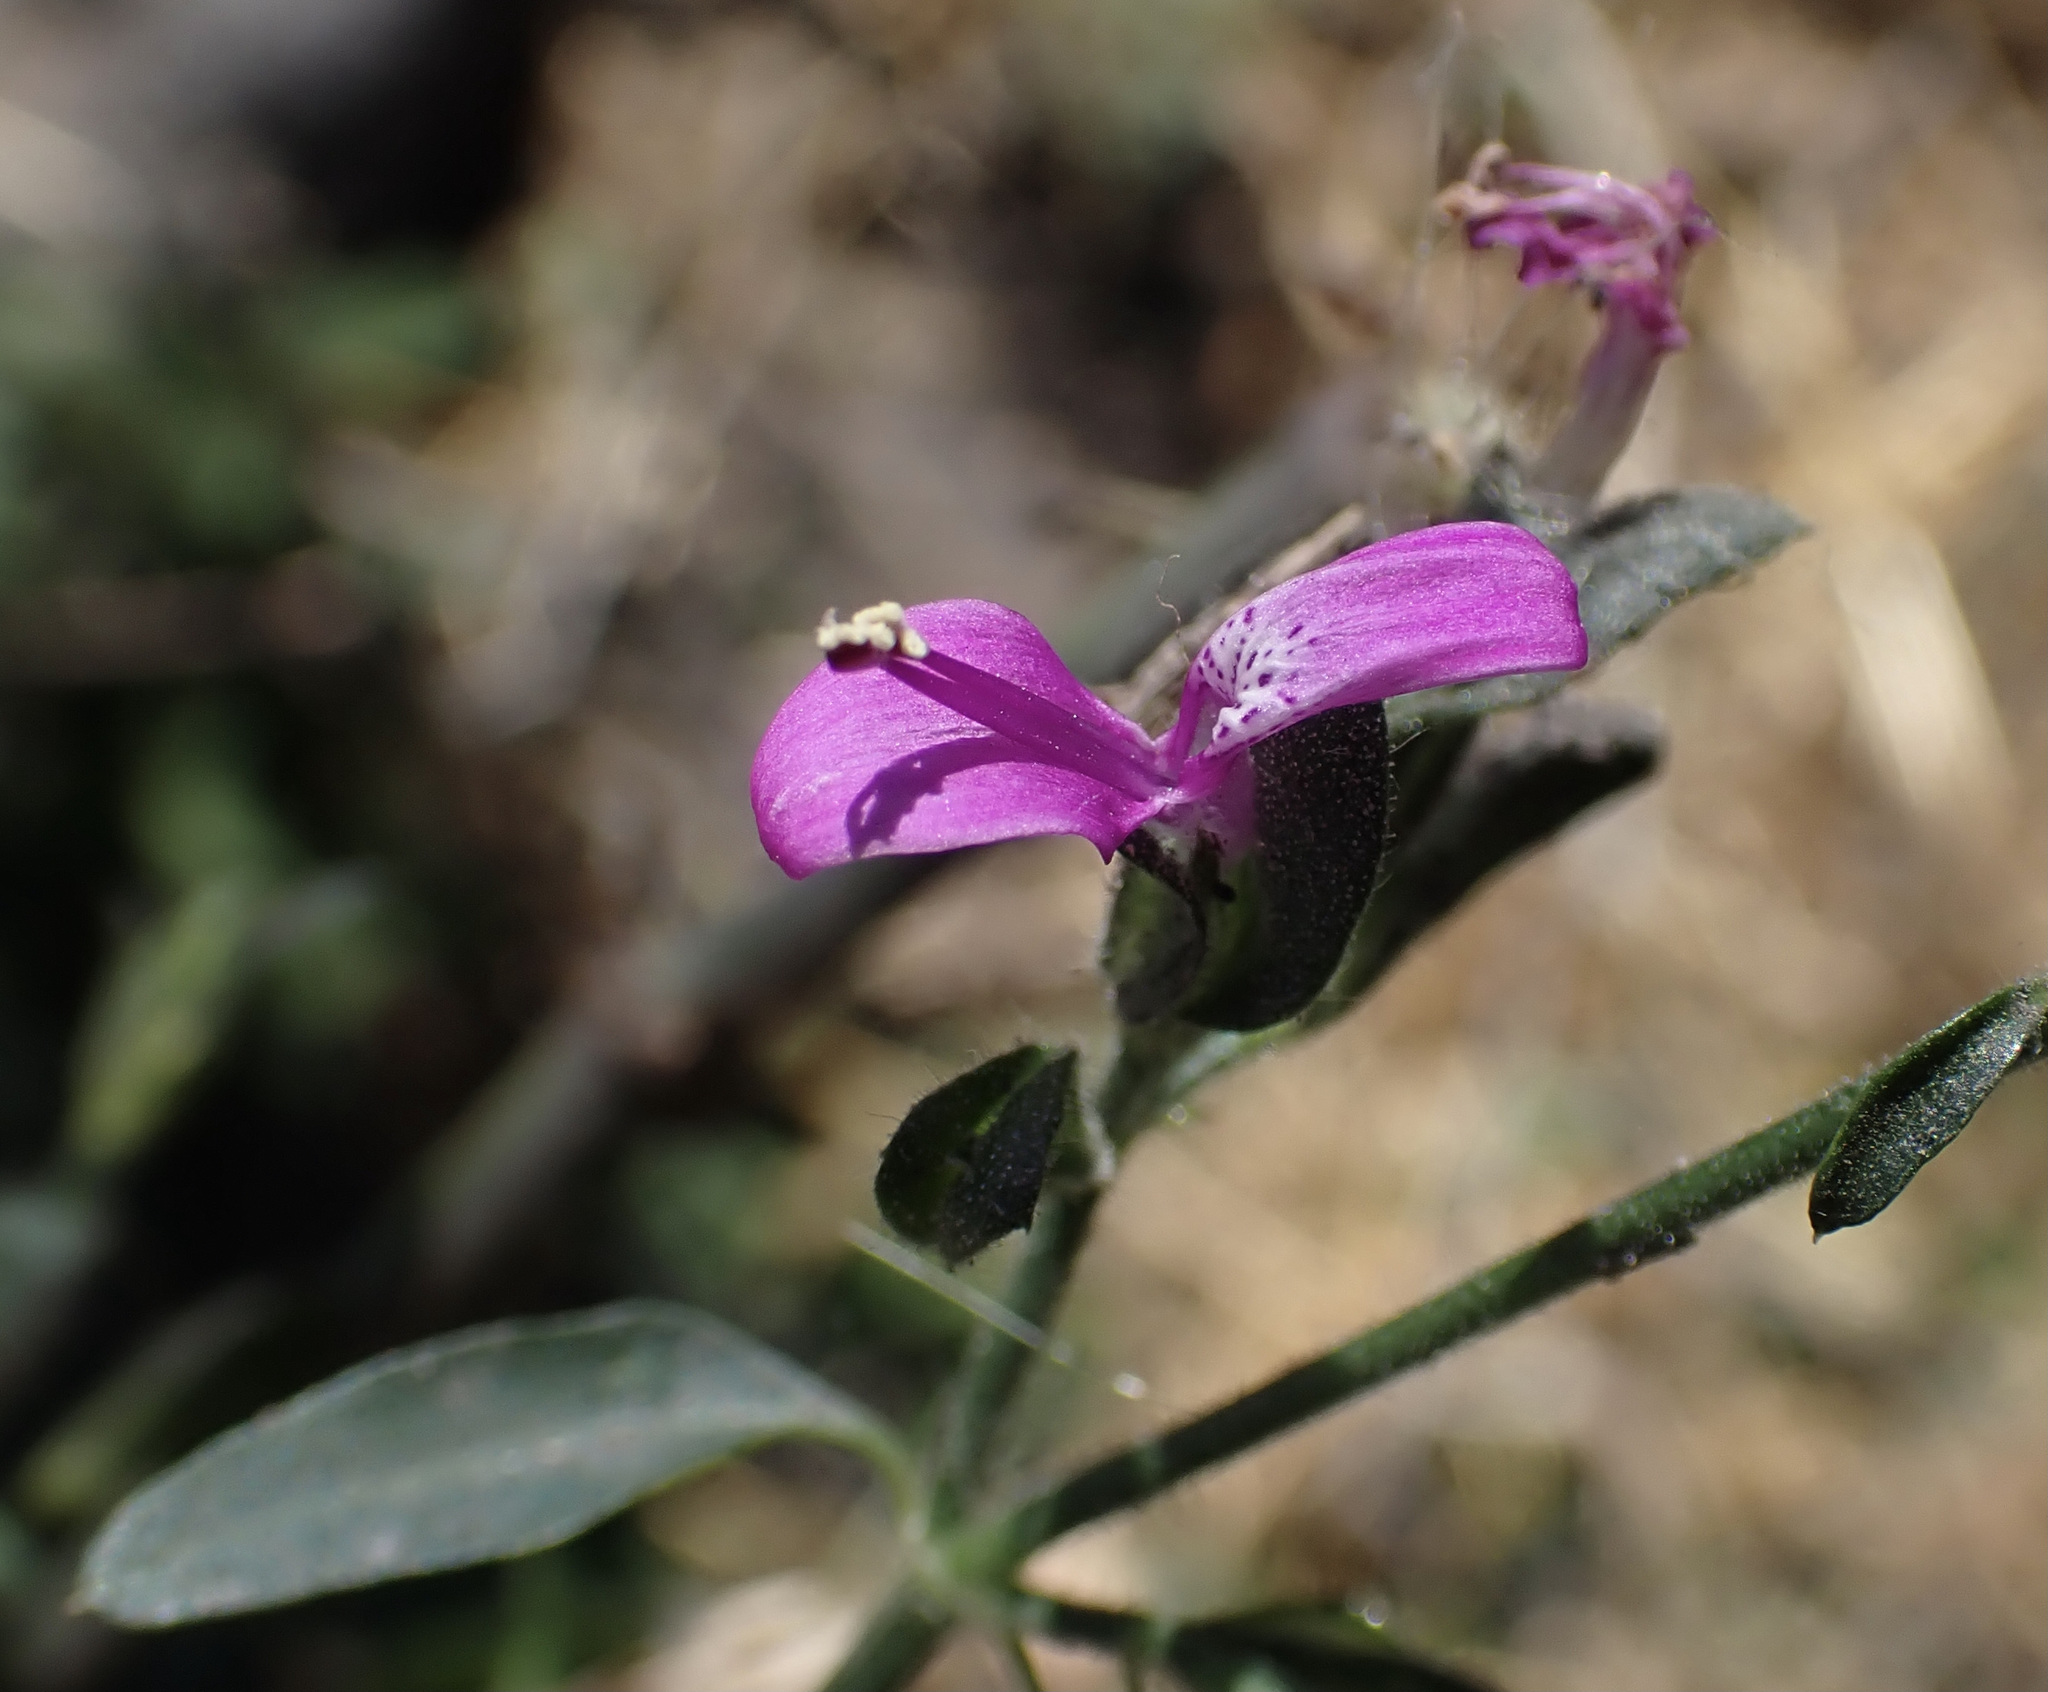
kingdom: Plantae
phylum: Tracheophyta
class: Magnoliopsida
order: Lamiales
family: Acanthaceae
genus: Dicliptera
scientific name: Dicliptera paniculata
